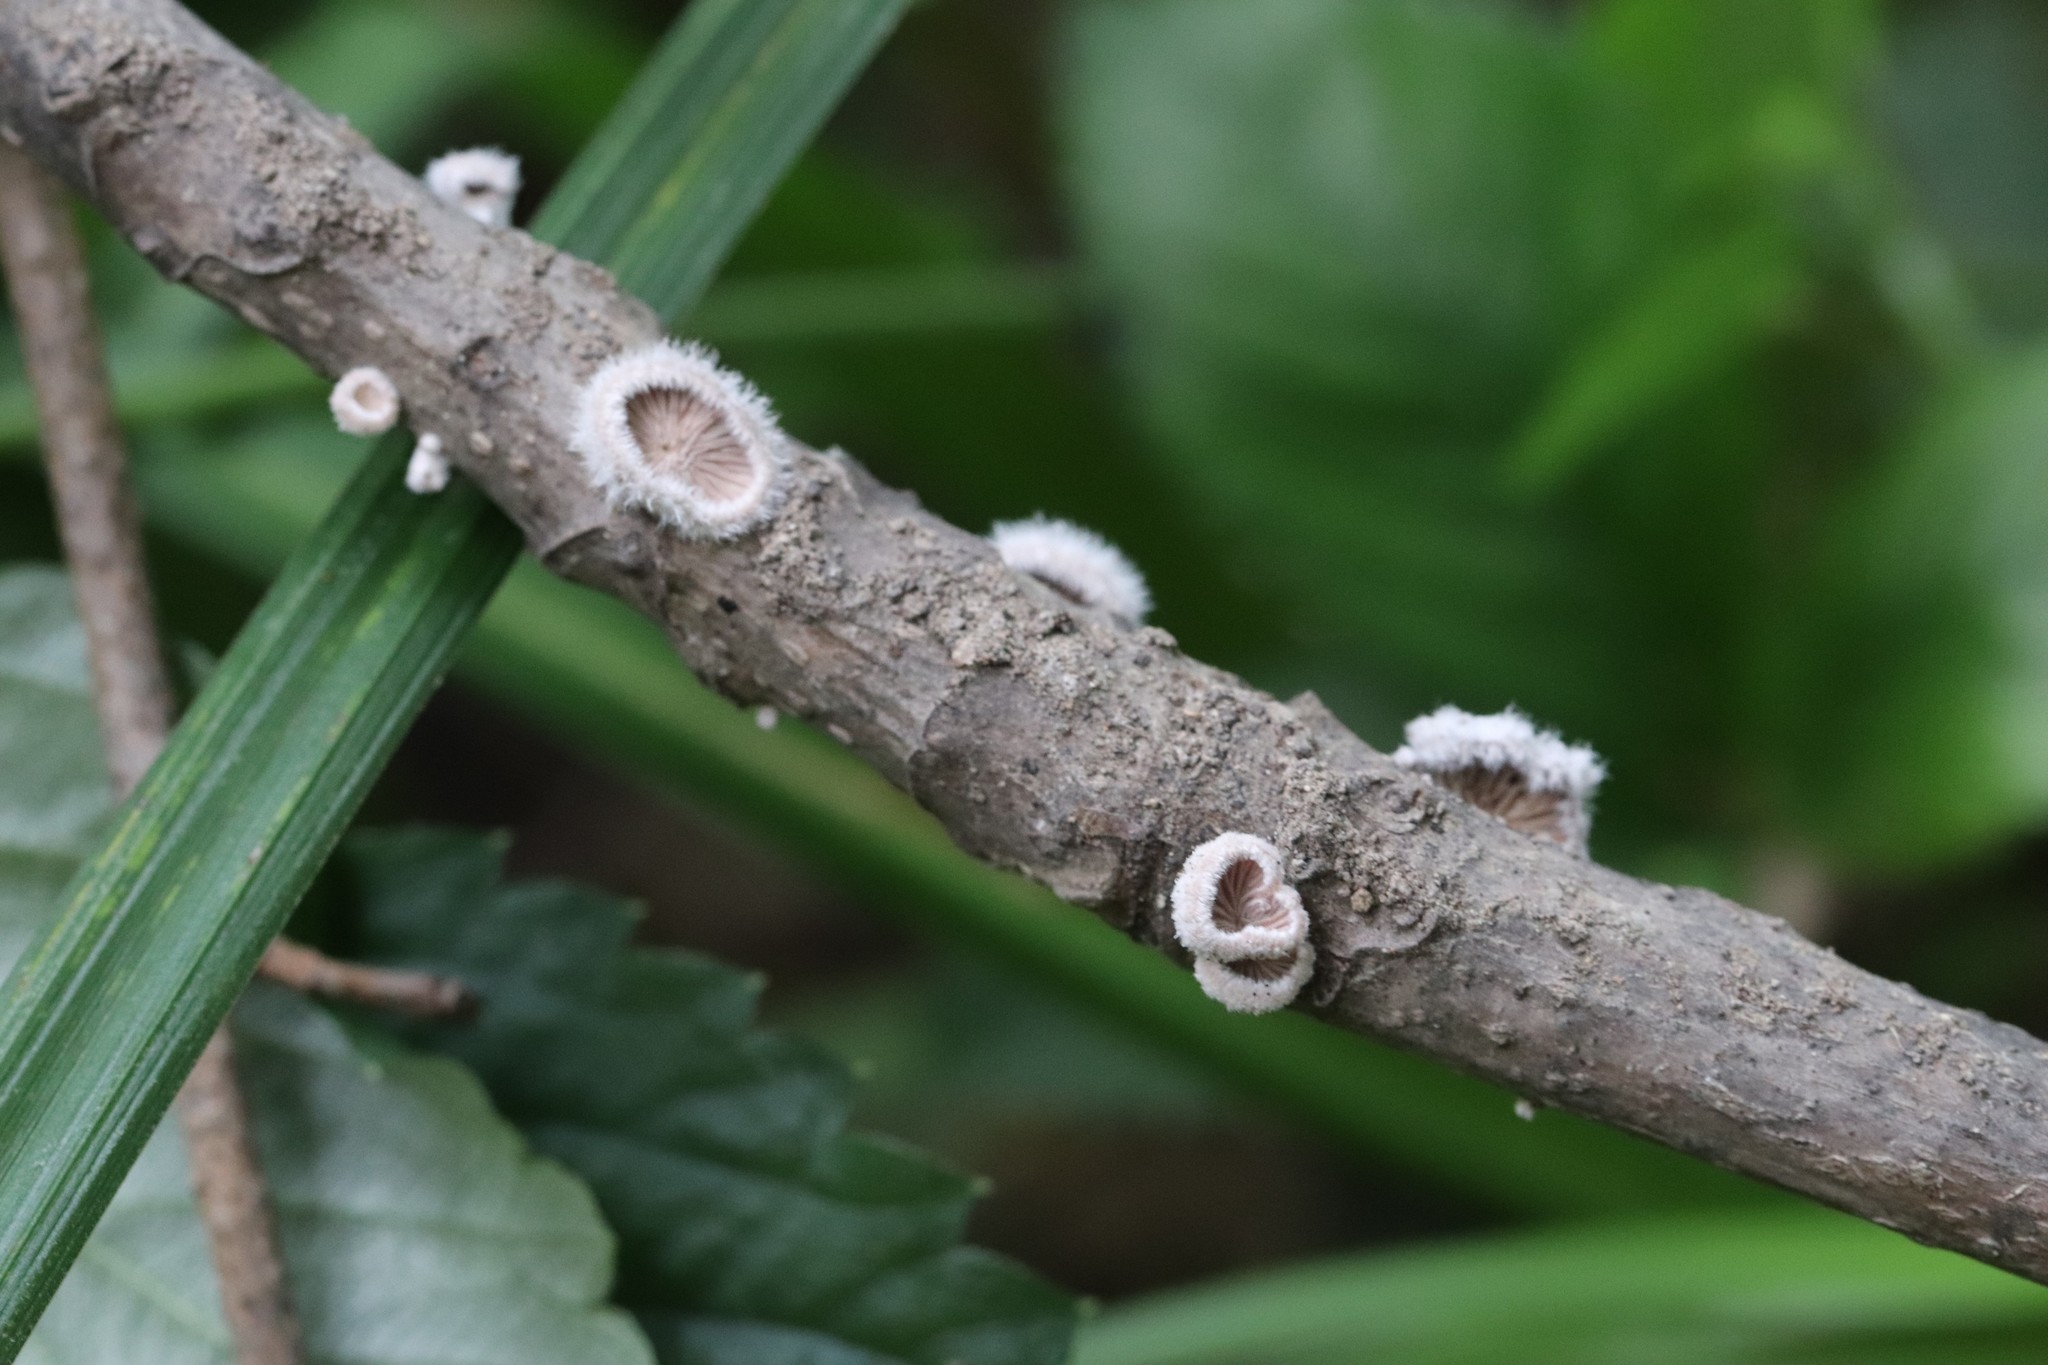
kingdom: Fungi
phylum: Basidiomycota
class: Agaricomycetes
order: Agaricales
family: Schizophyllaceae
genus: Schizophyllum
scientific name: Schizophyllum commune
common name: Common porecrust
